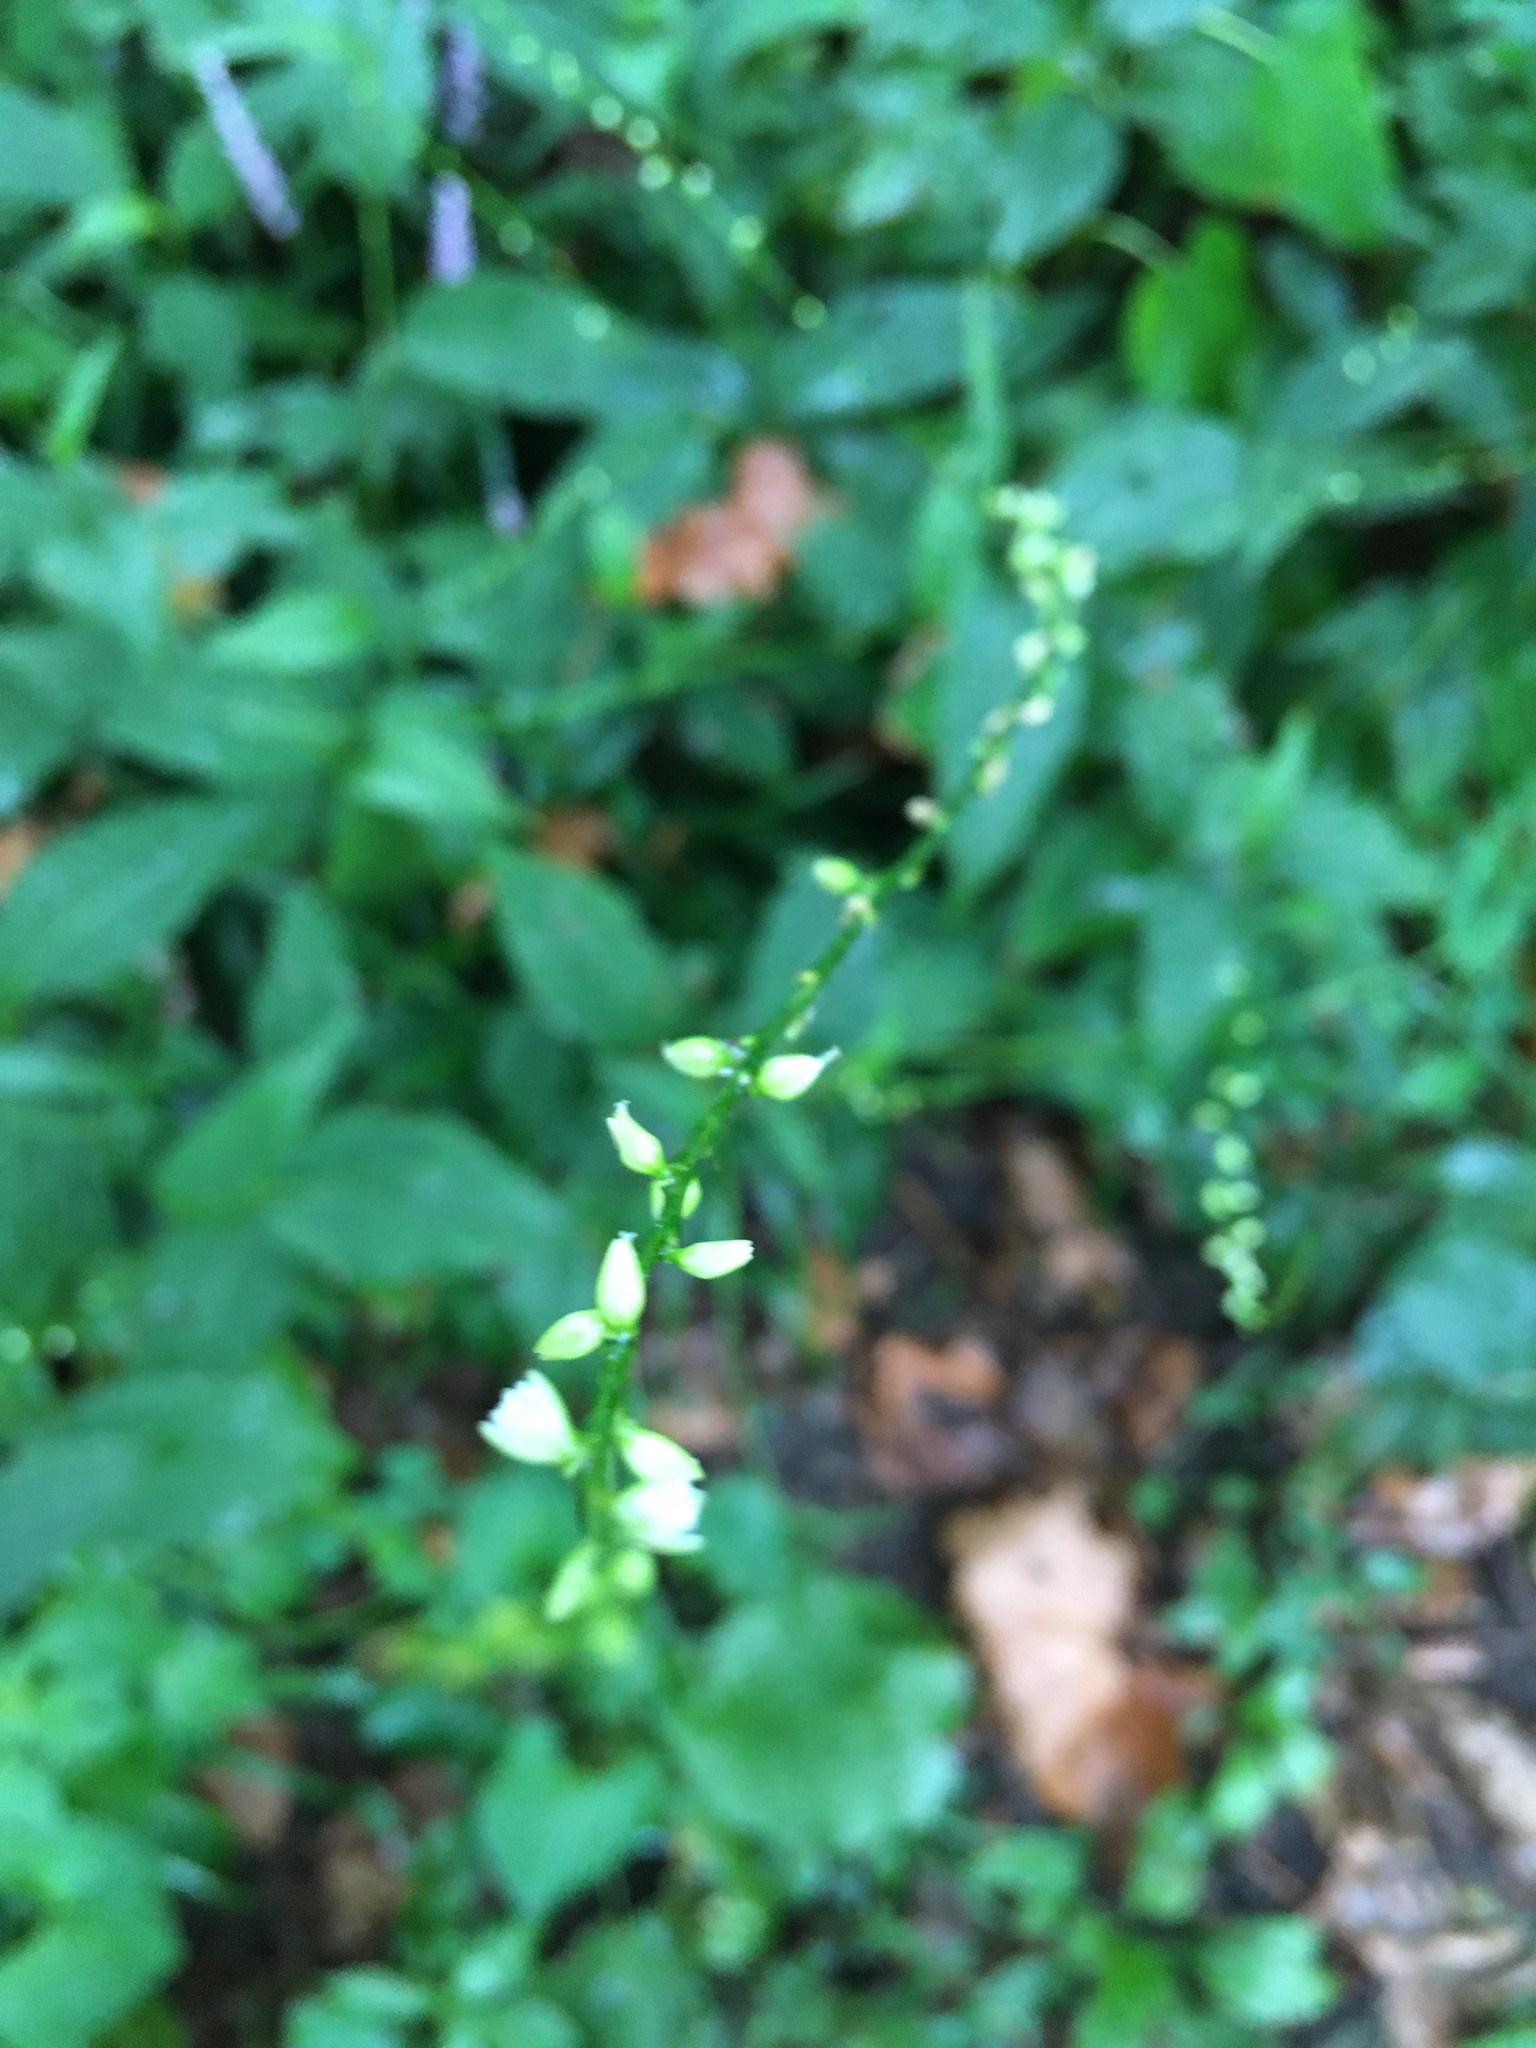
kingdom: Plantae
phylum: Tracheophyta
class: Magnoliopsida
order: Caryophyllales
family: Polygonaceae
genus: Persicaria
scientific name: Persicaria virginiana
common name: Jumpseed
